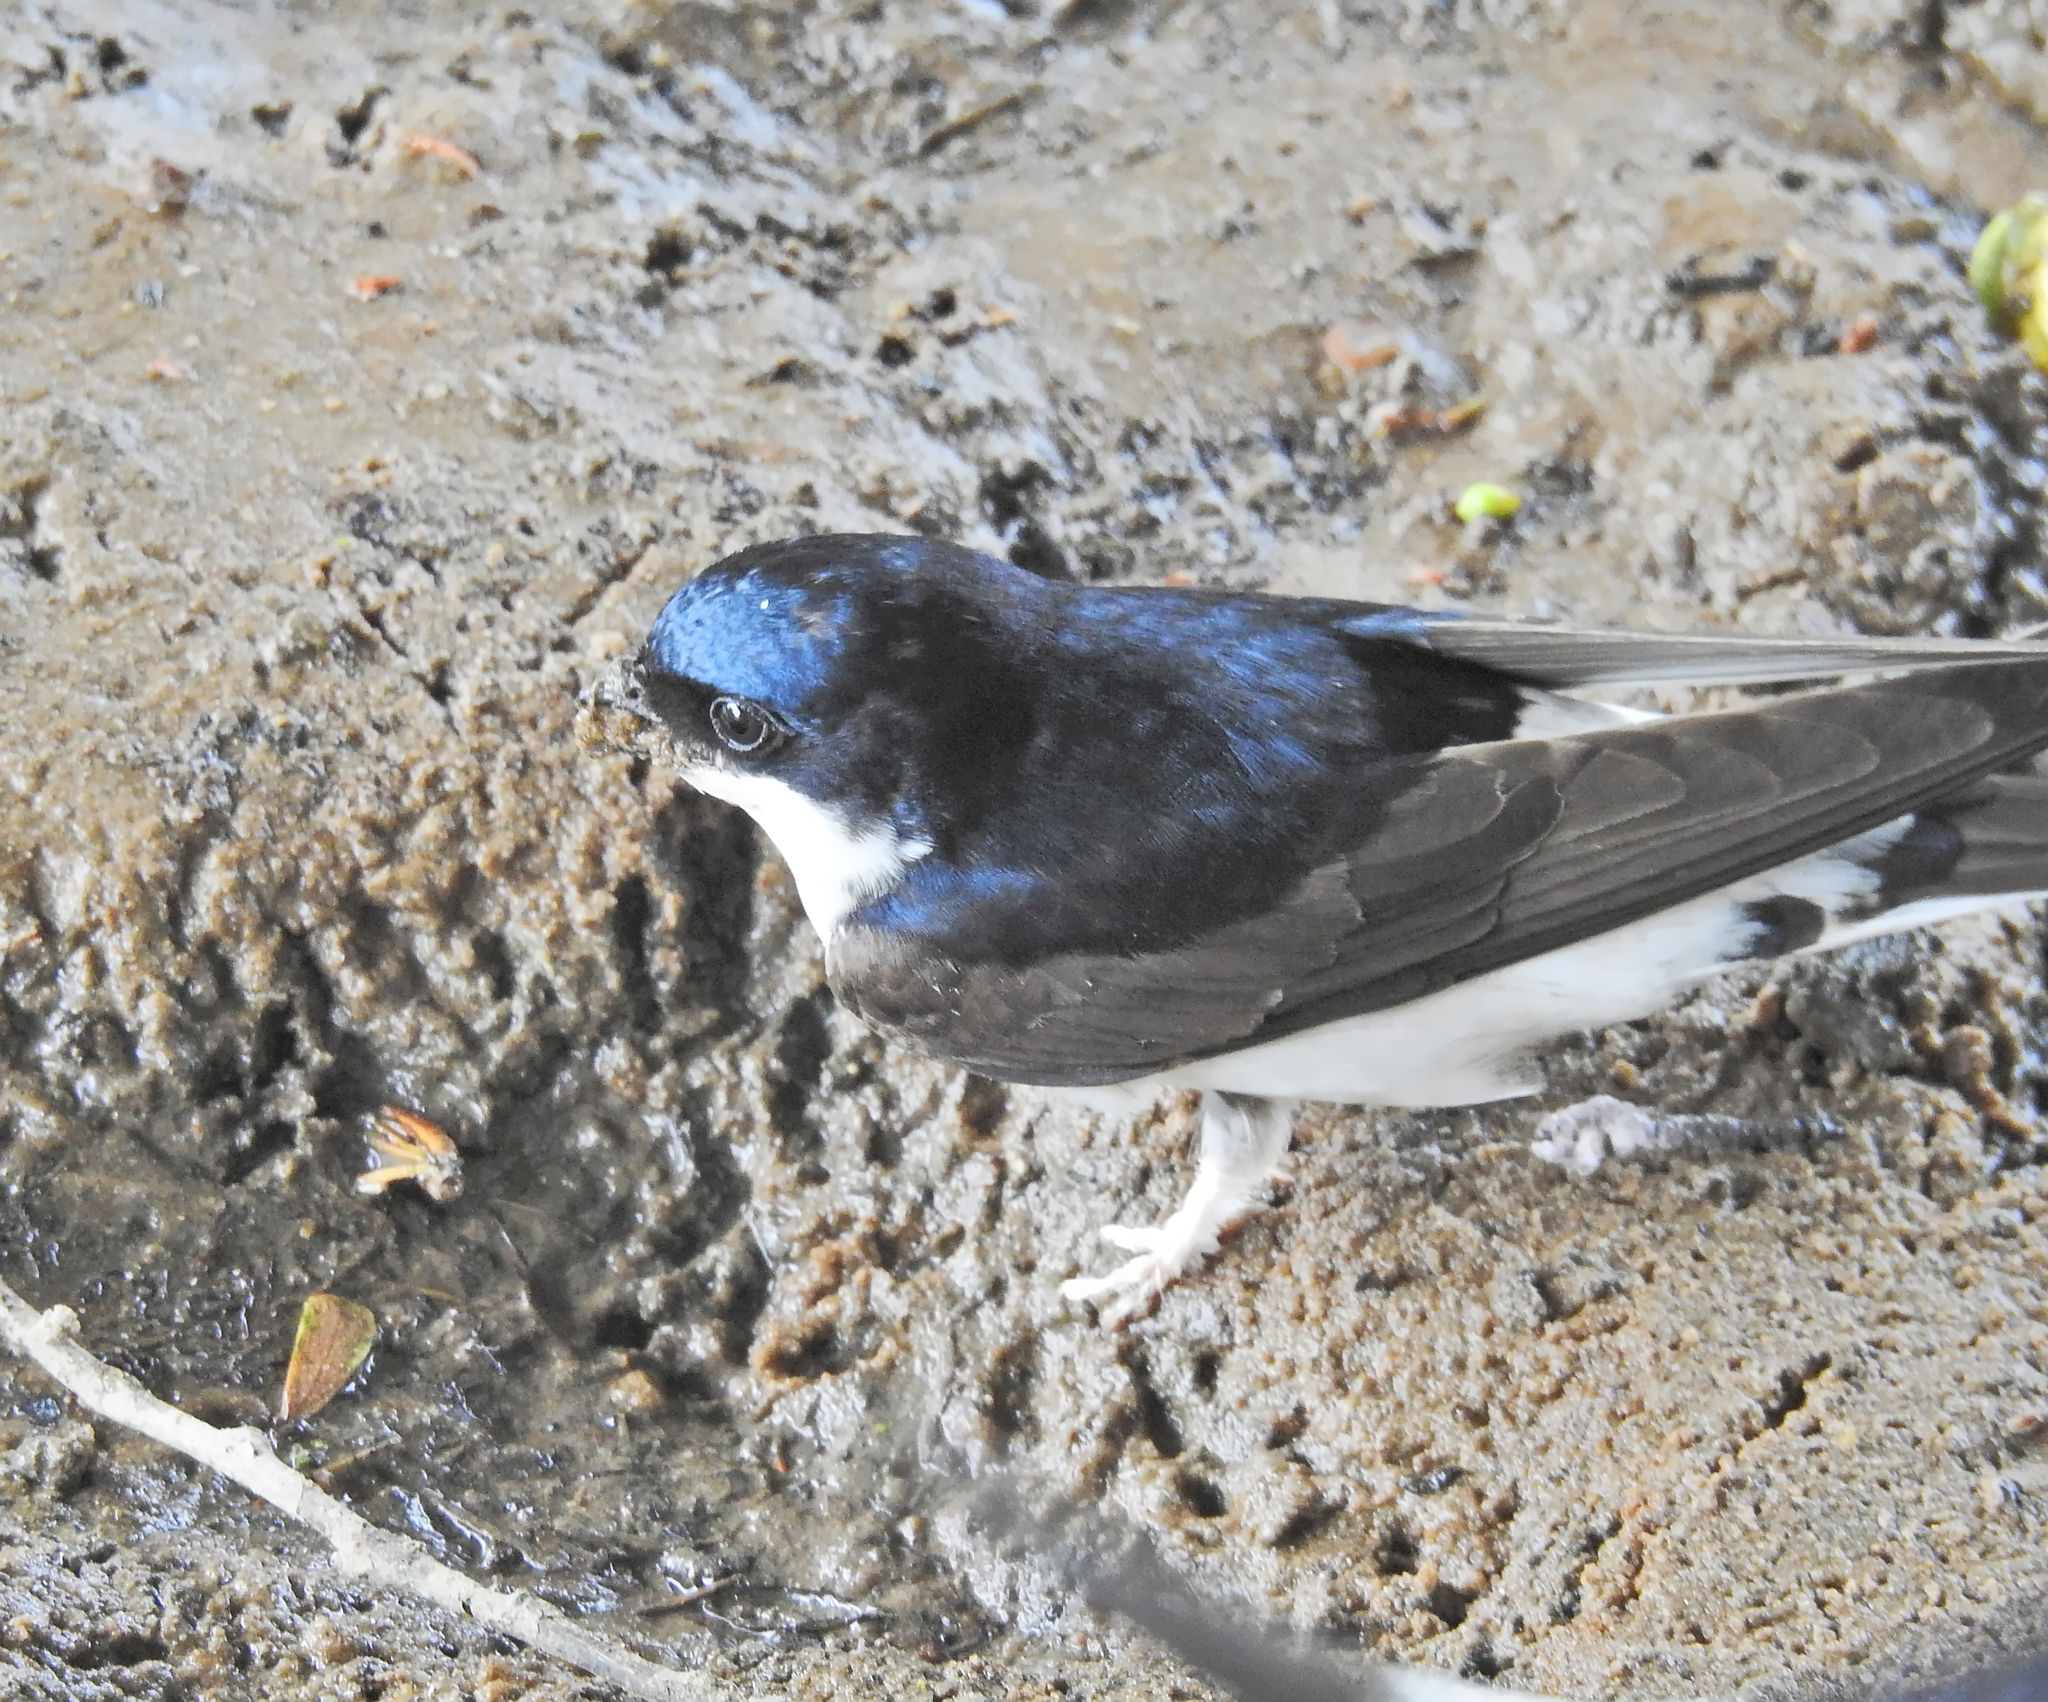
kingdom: Animalia
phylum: Chordata
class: Aves
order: Passeriformes
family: Hirundinidae
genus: Delichon
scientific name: Delichon urbicum
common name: Common house martin
